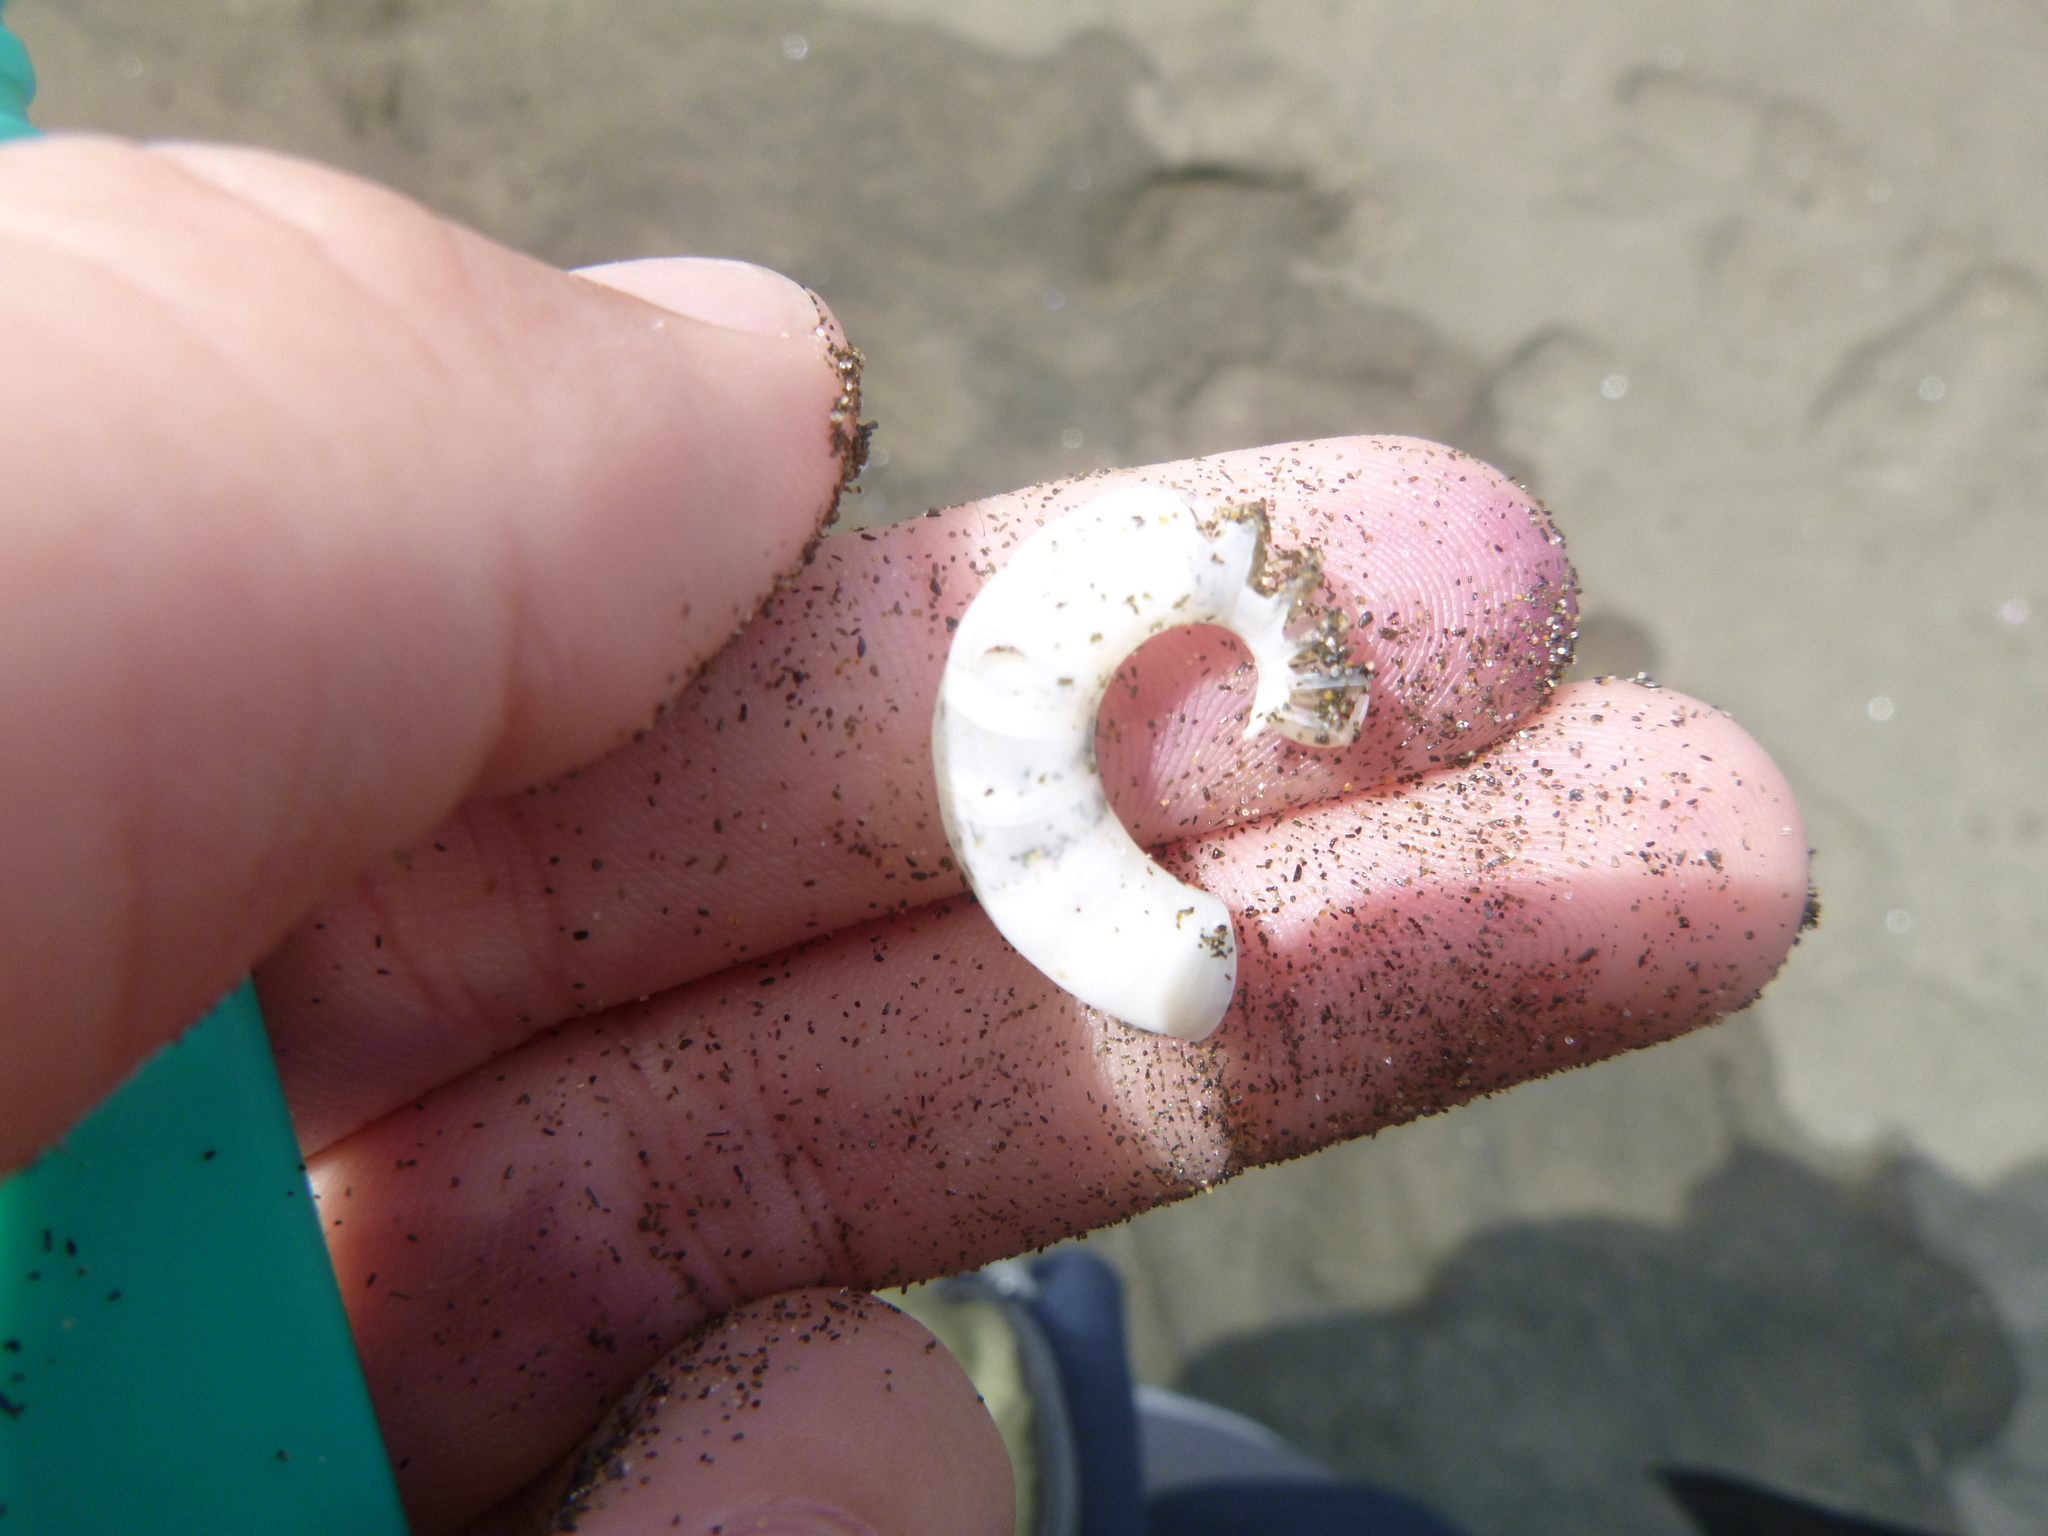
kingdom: Animalia
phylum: Mollusca
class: Cephalopoda
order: Spirulida
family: Spirulidae
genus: Spirula
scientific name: Spirula spirula
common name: Ram's horn squid
